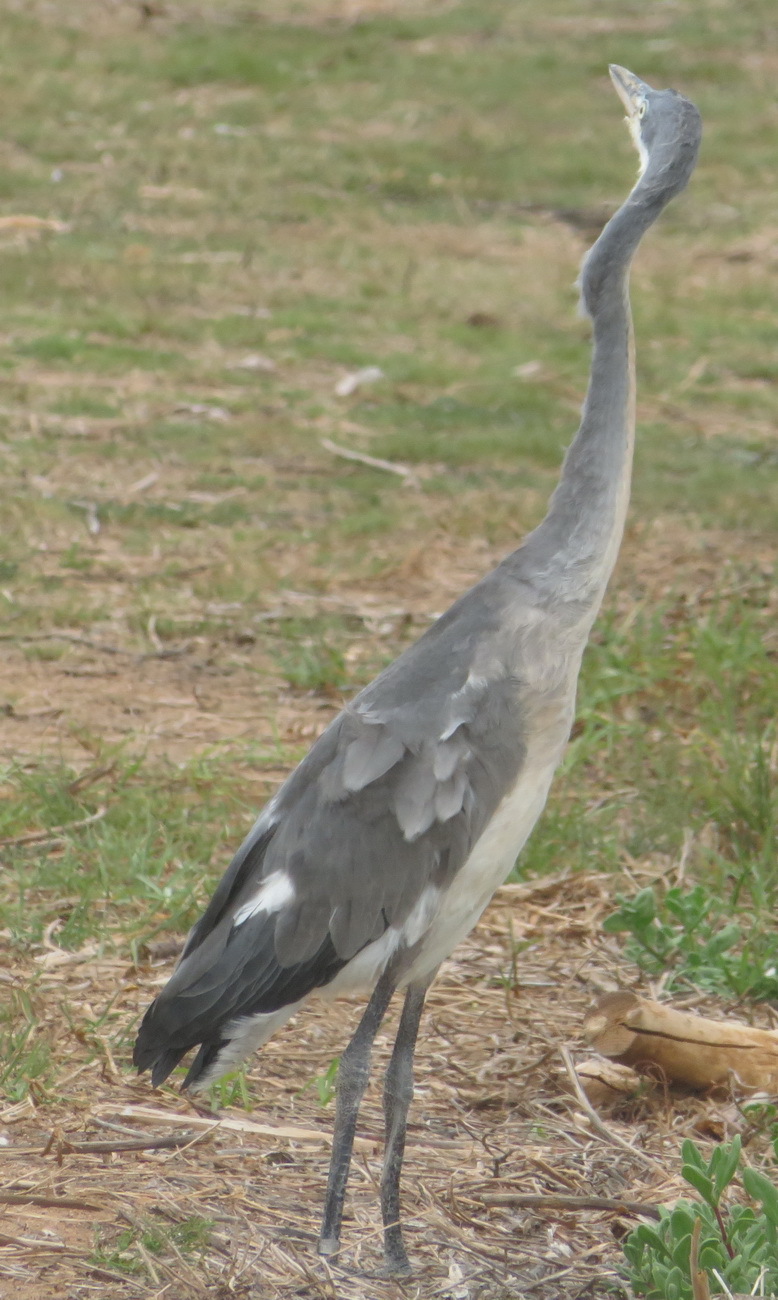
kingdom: Animalia
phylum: Chordata
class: Aves
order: Pelecaniformes
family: Ardeidae
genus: Ardea
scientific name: Ardea melanocephala
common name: Black-headed heron
